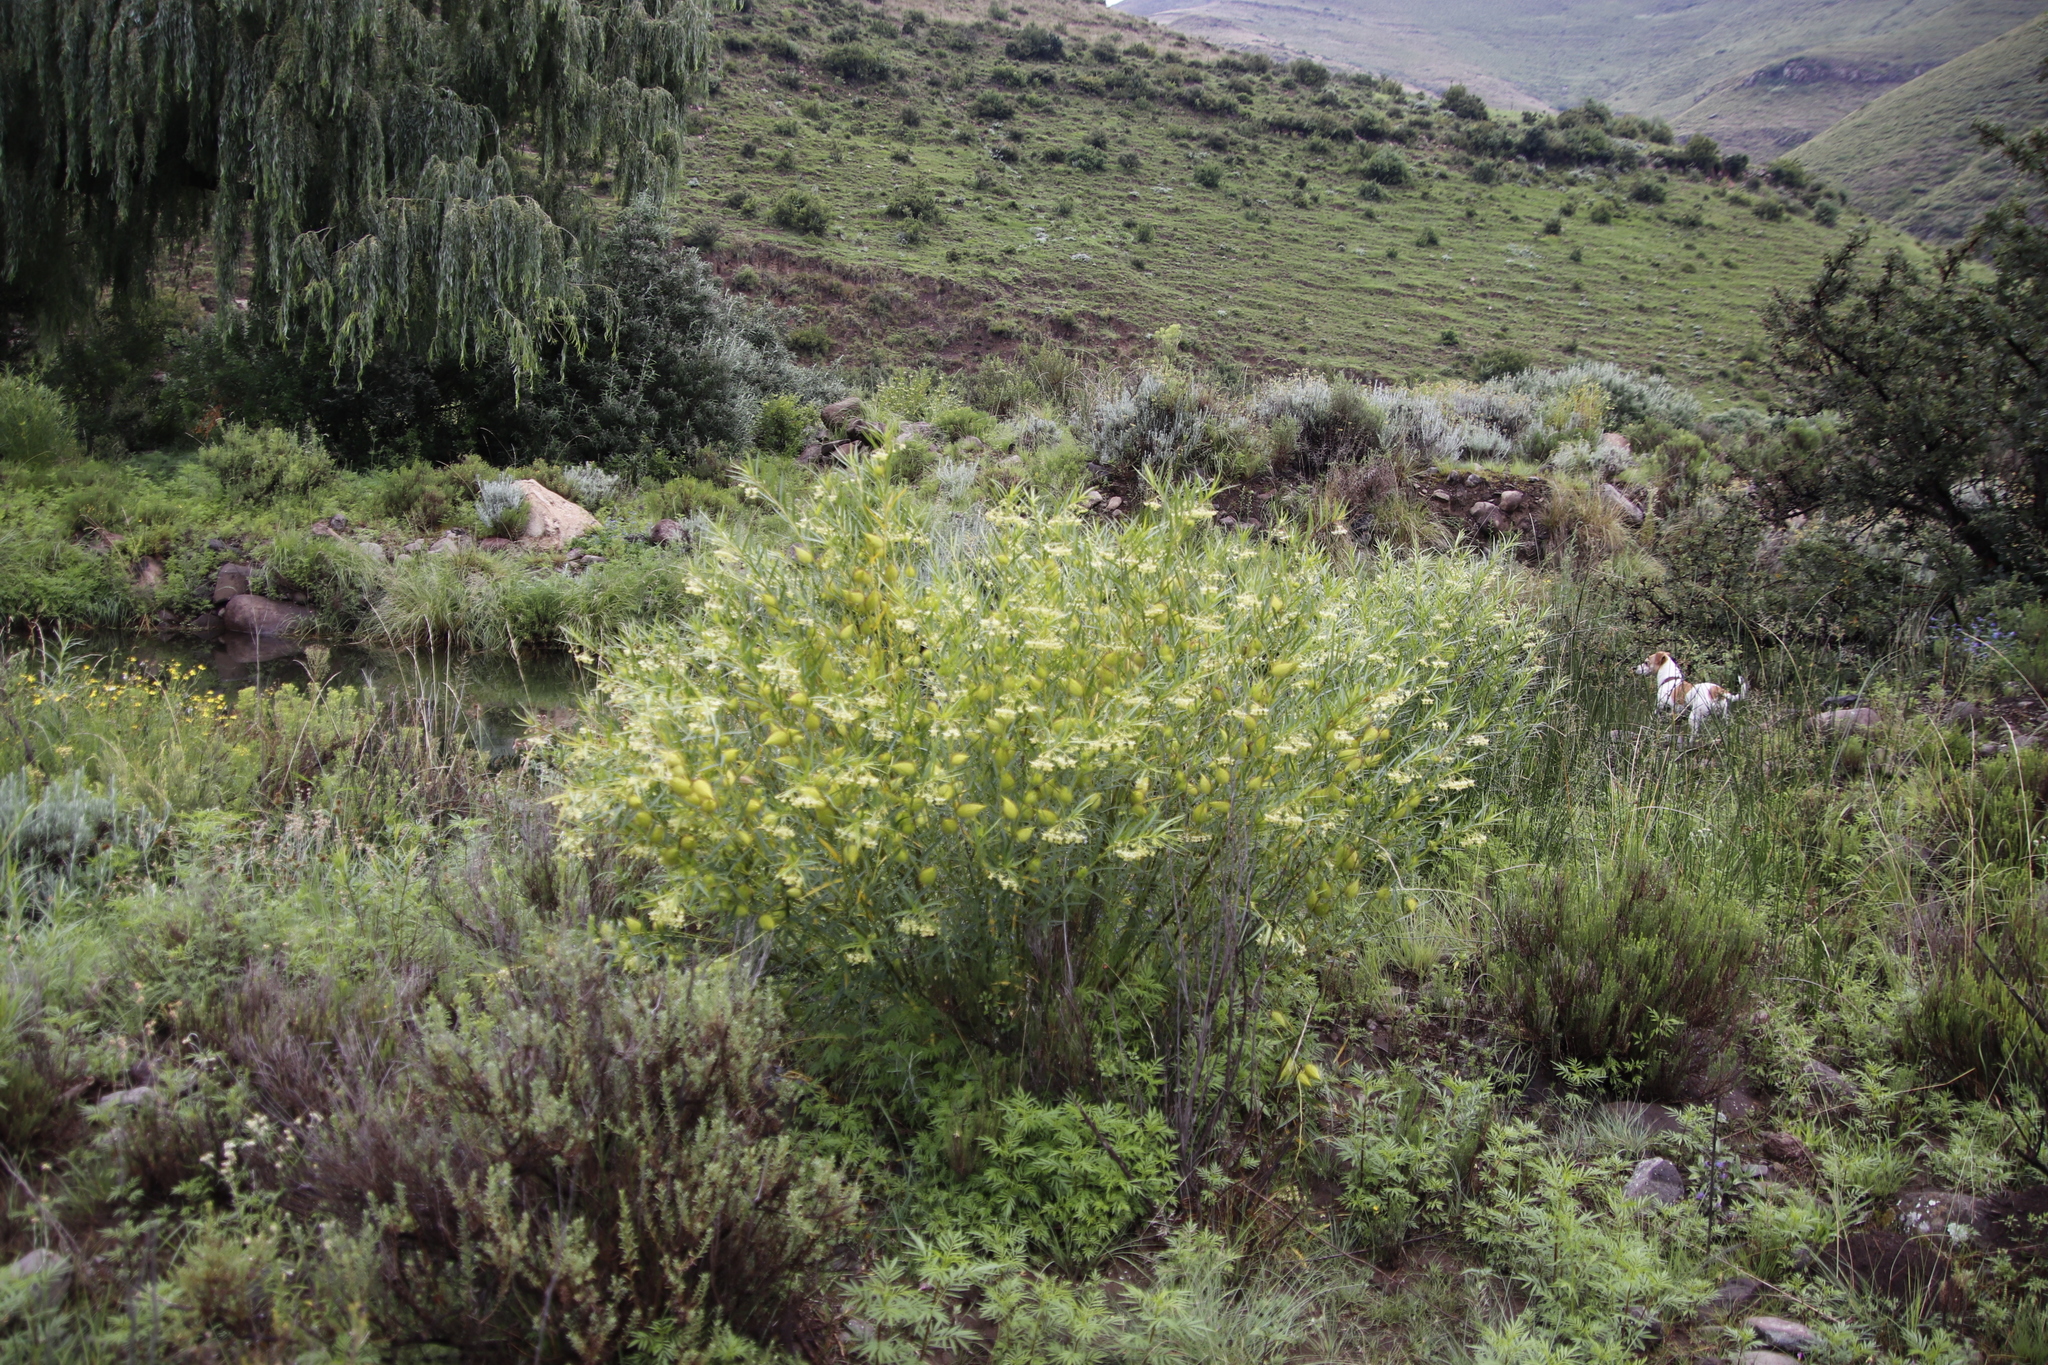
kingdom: Plantae
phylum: Tracheophyta
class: Magnoliopsida
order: Gentianales
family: Apocynaceae
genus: Gomphocarpus
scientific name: Gomphocarpus fruticosus
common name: Milkweed
